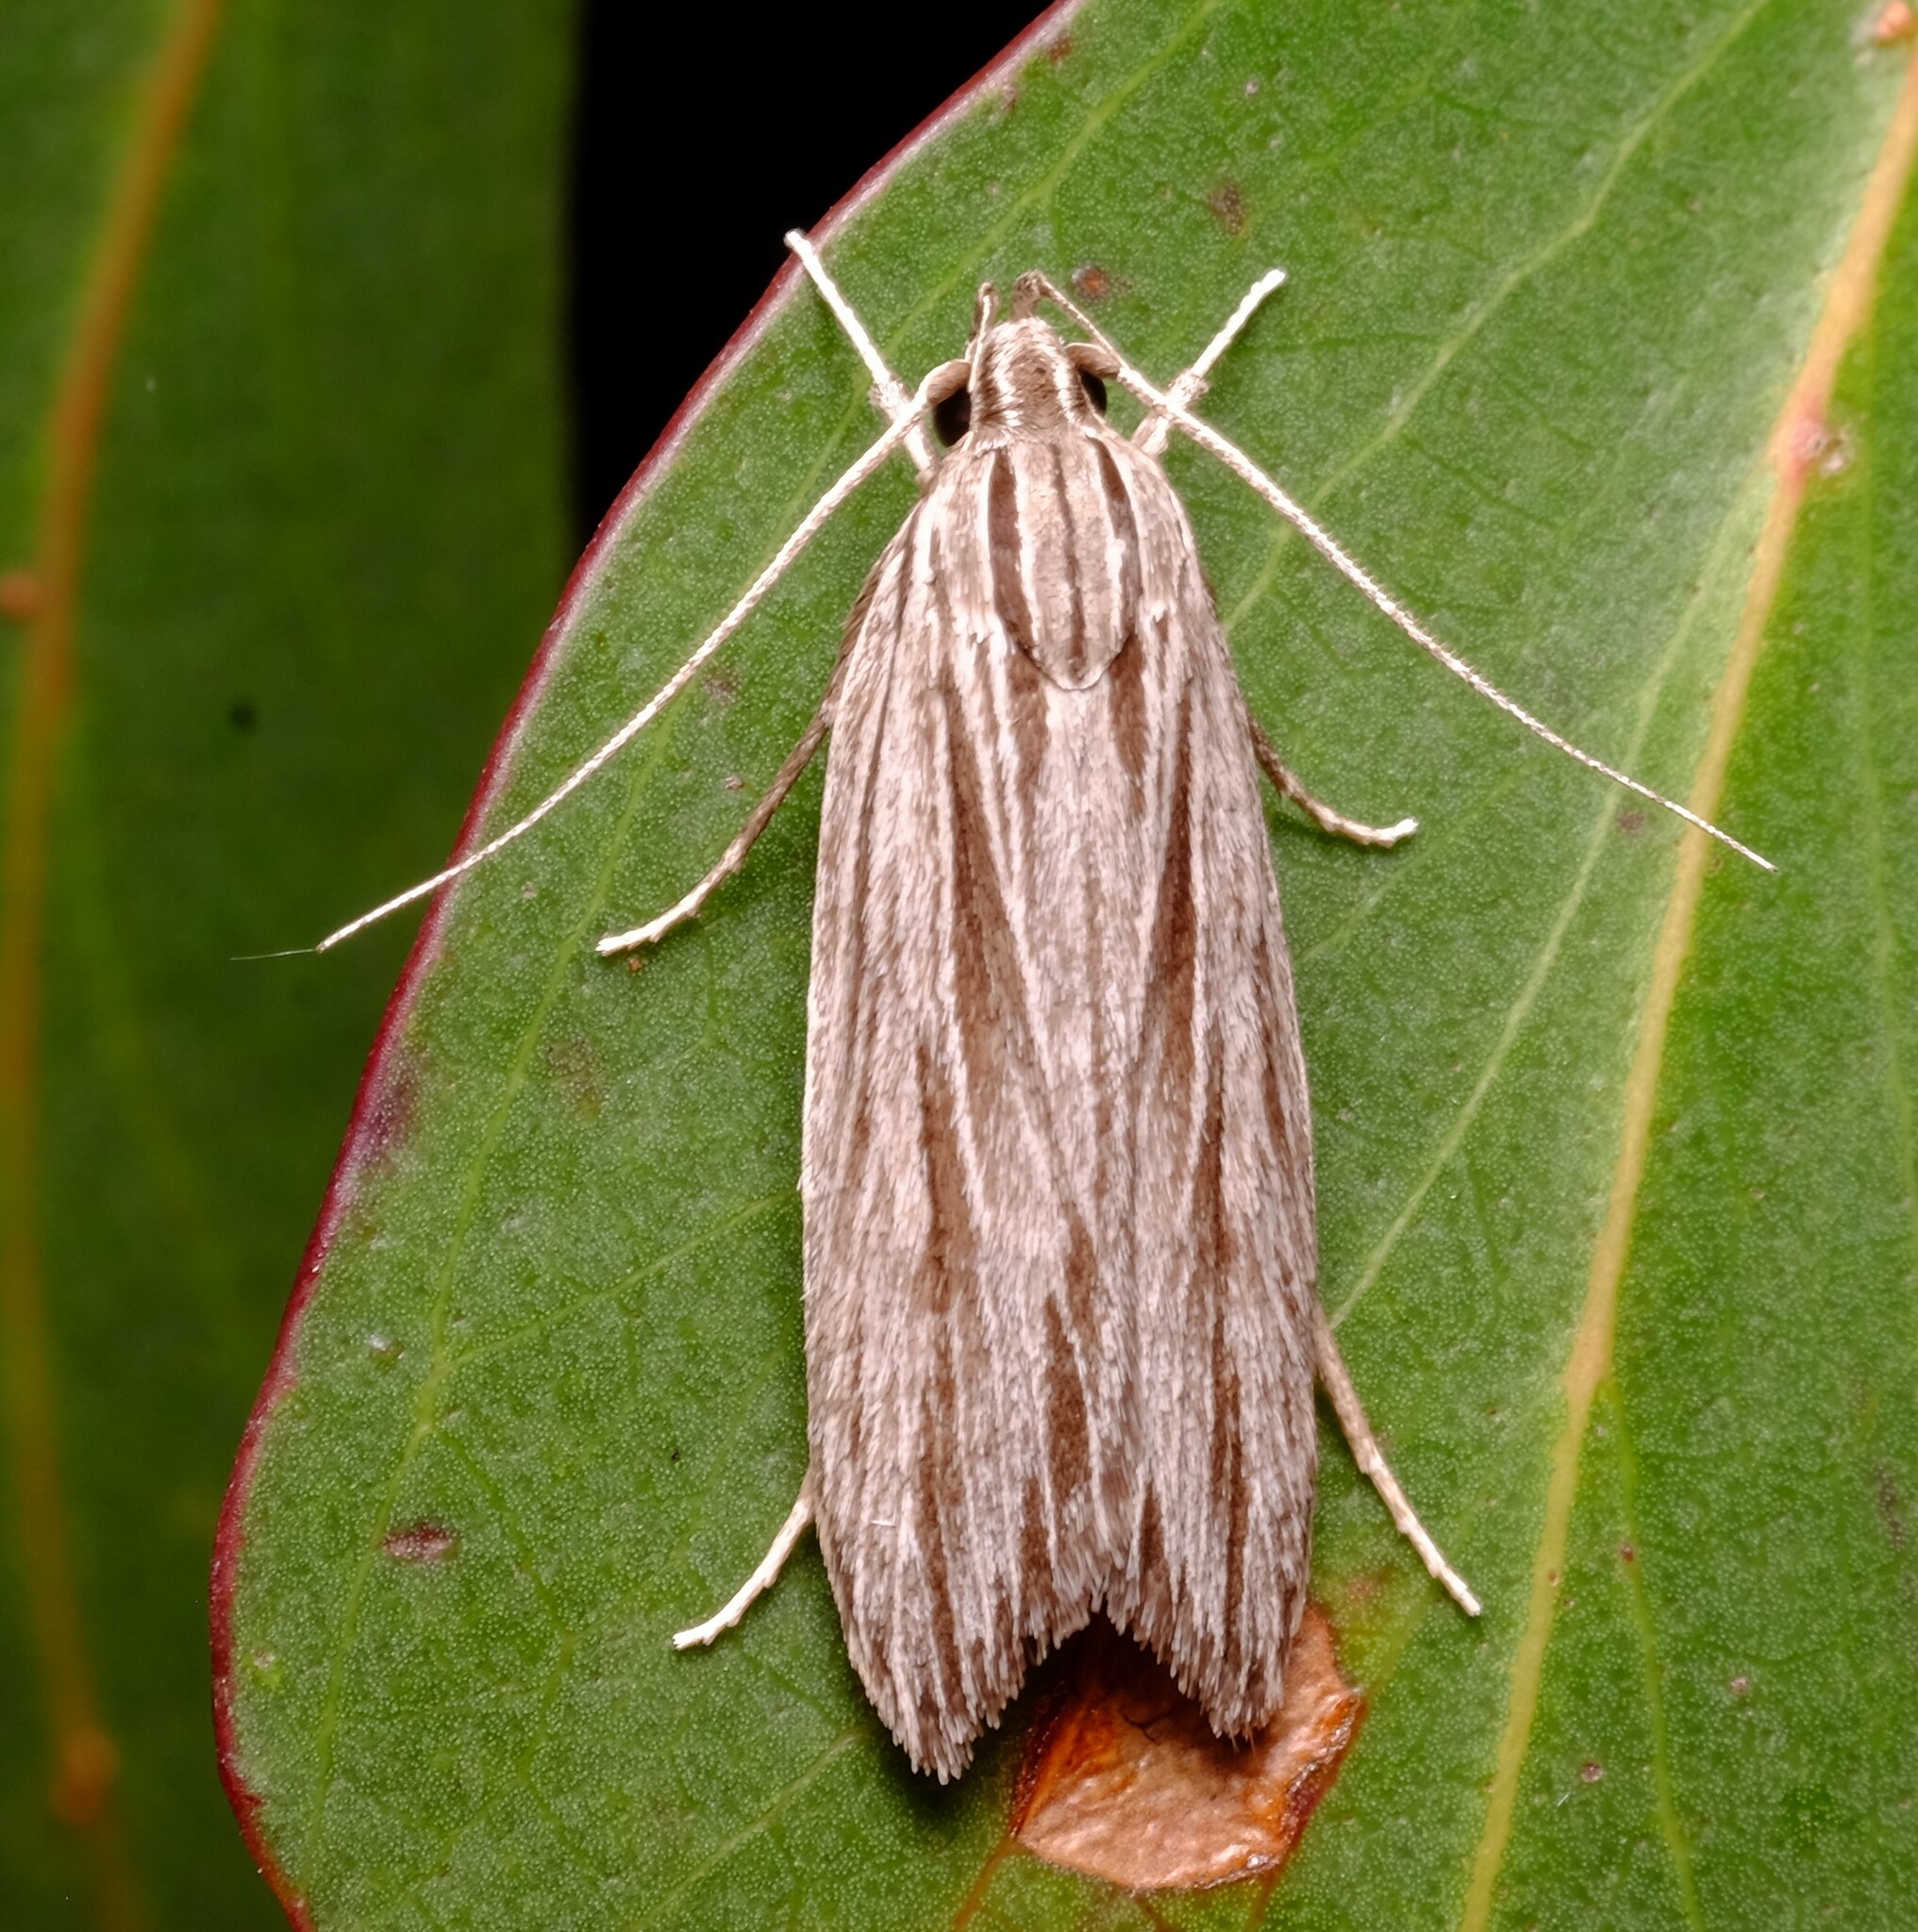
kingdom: Animalia
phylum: Arthropoda
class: Insecta
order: Lepidoptera
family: Xyloryctidae
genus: Leistarcha
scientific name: Leistarcha scitissimella
